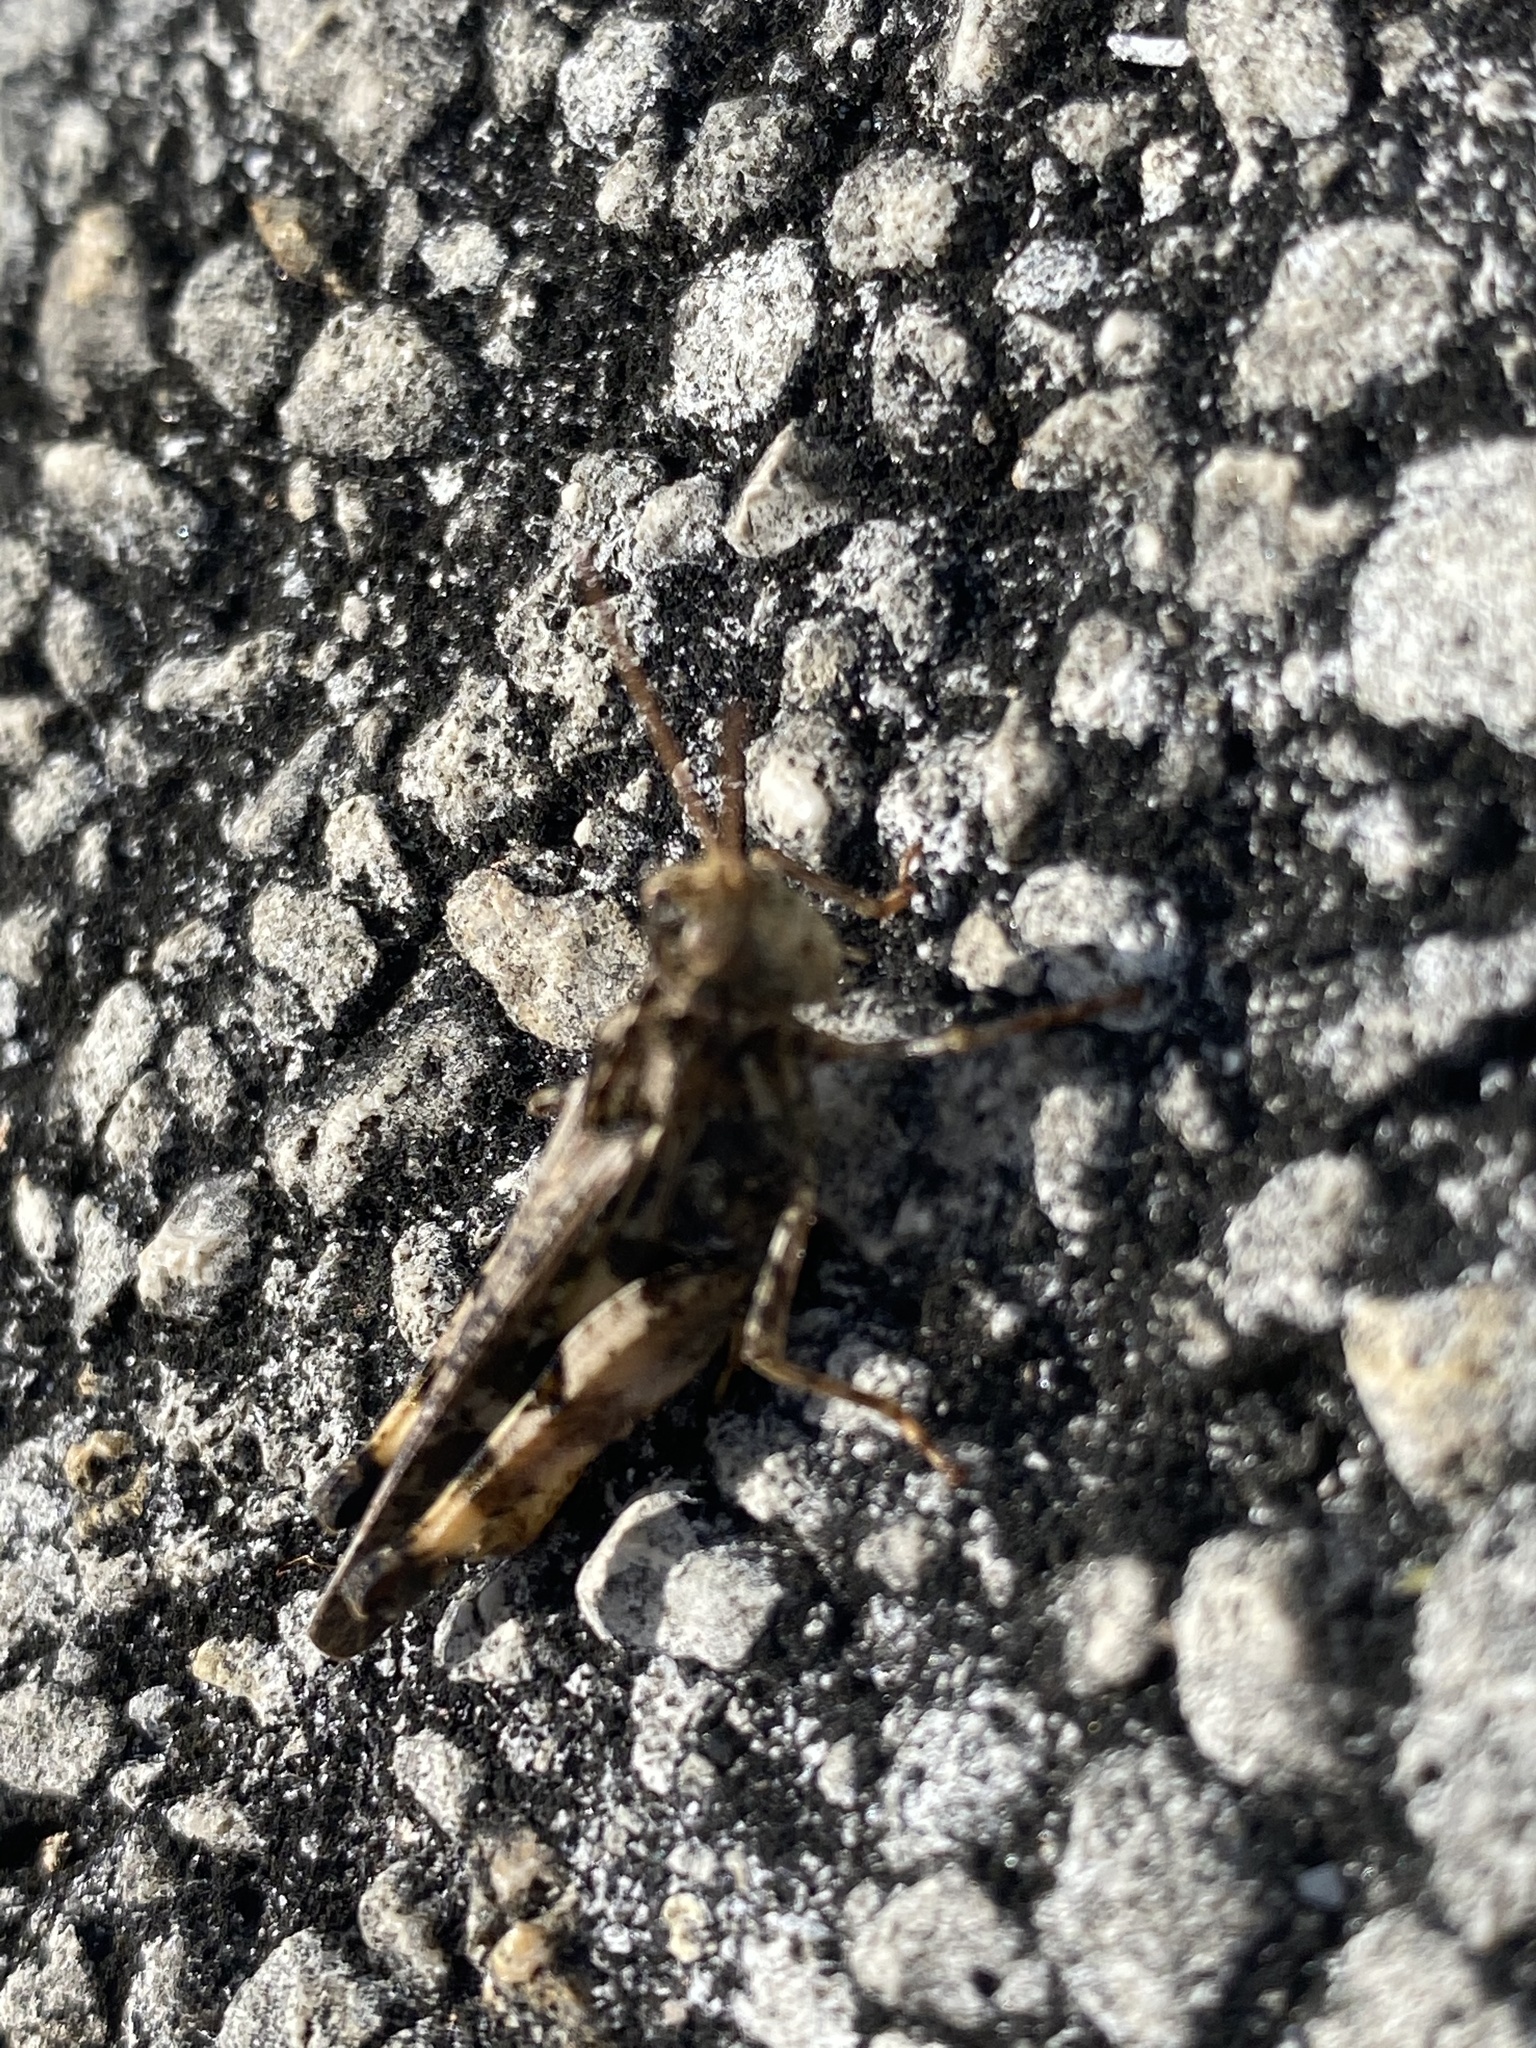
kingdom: Animalia
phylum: Arthropoda
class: Insecta
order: Orthoptera
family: Acrididae
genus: Chortophaga
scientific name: Chortophaga australior
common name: Southern green-striped grasshopper
